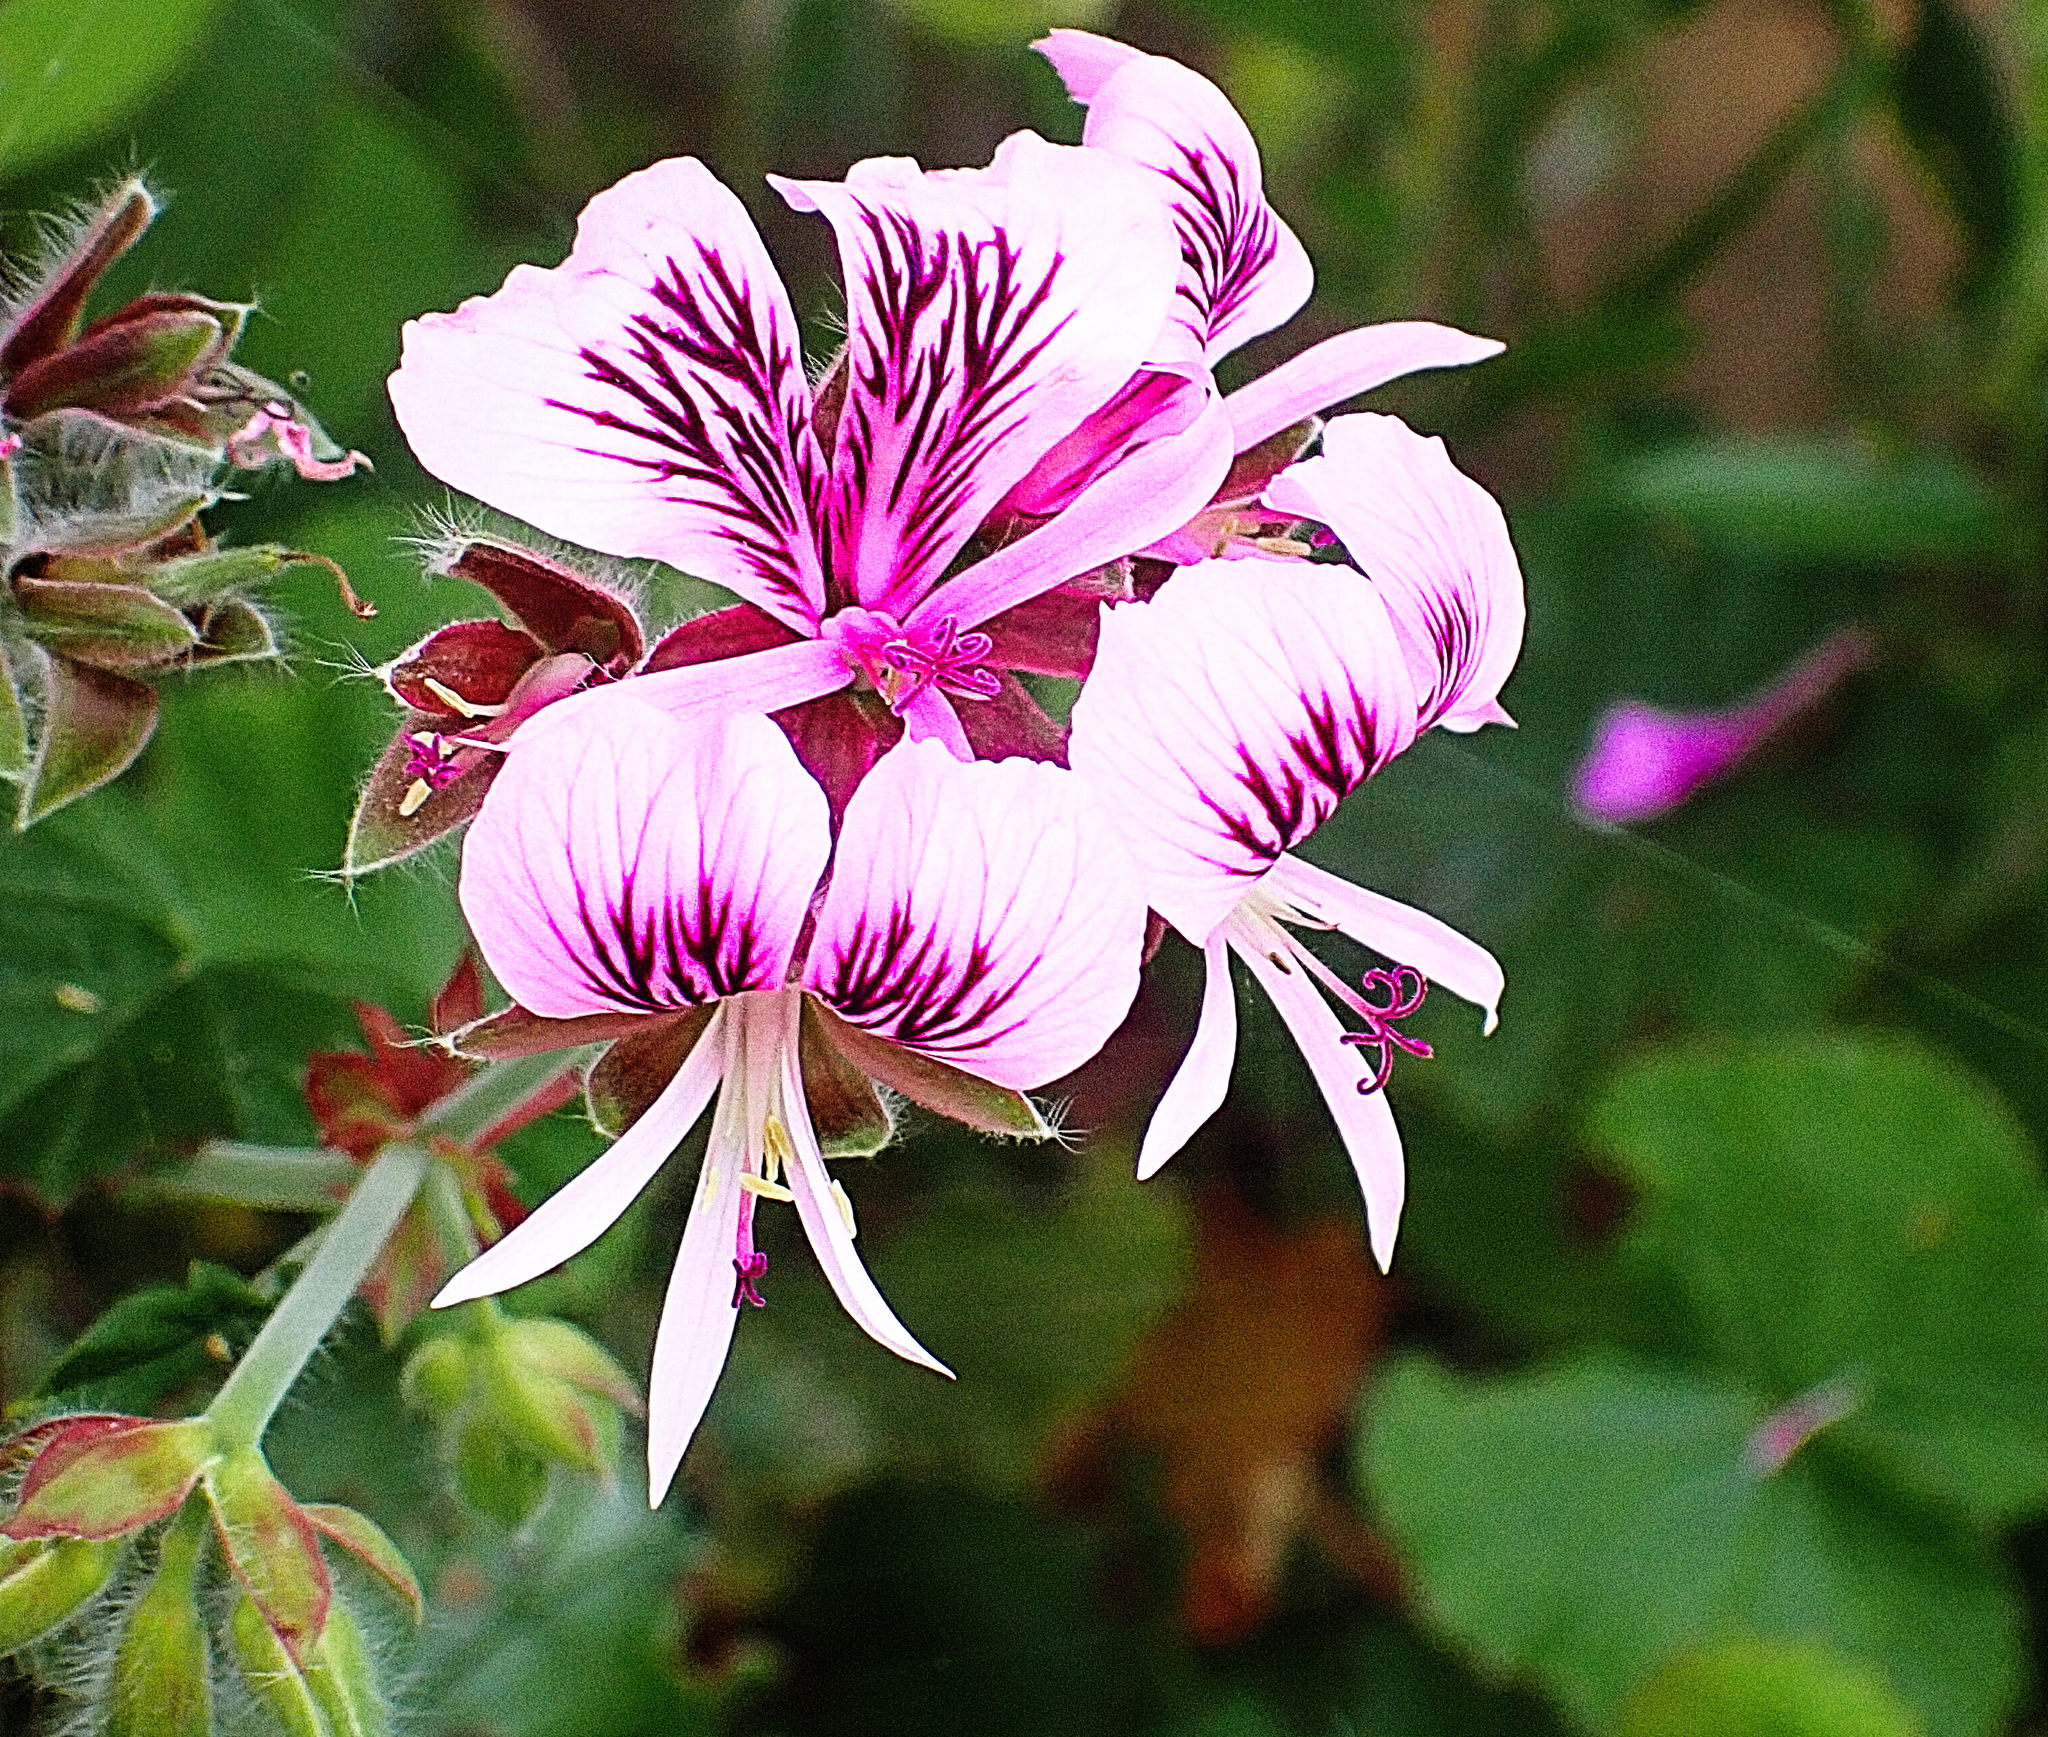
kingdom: Plantae
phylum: Tracheophyta
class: Magnoliopsida
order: Geraniales
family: Geraniaceae
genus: Pelargonium
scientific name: Pelargonium cordifolium
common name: Heart-leaf pelargonium
